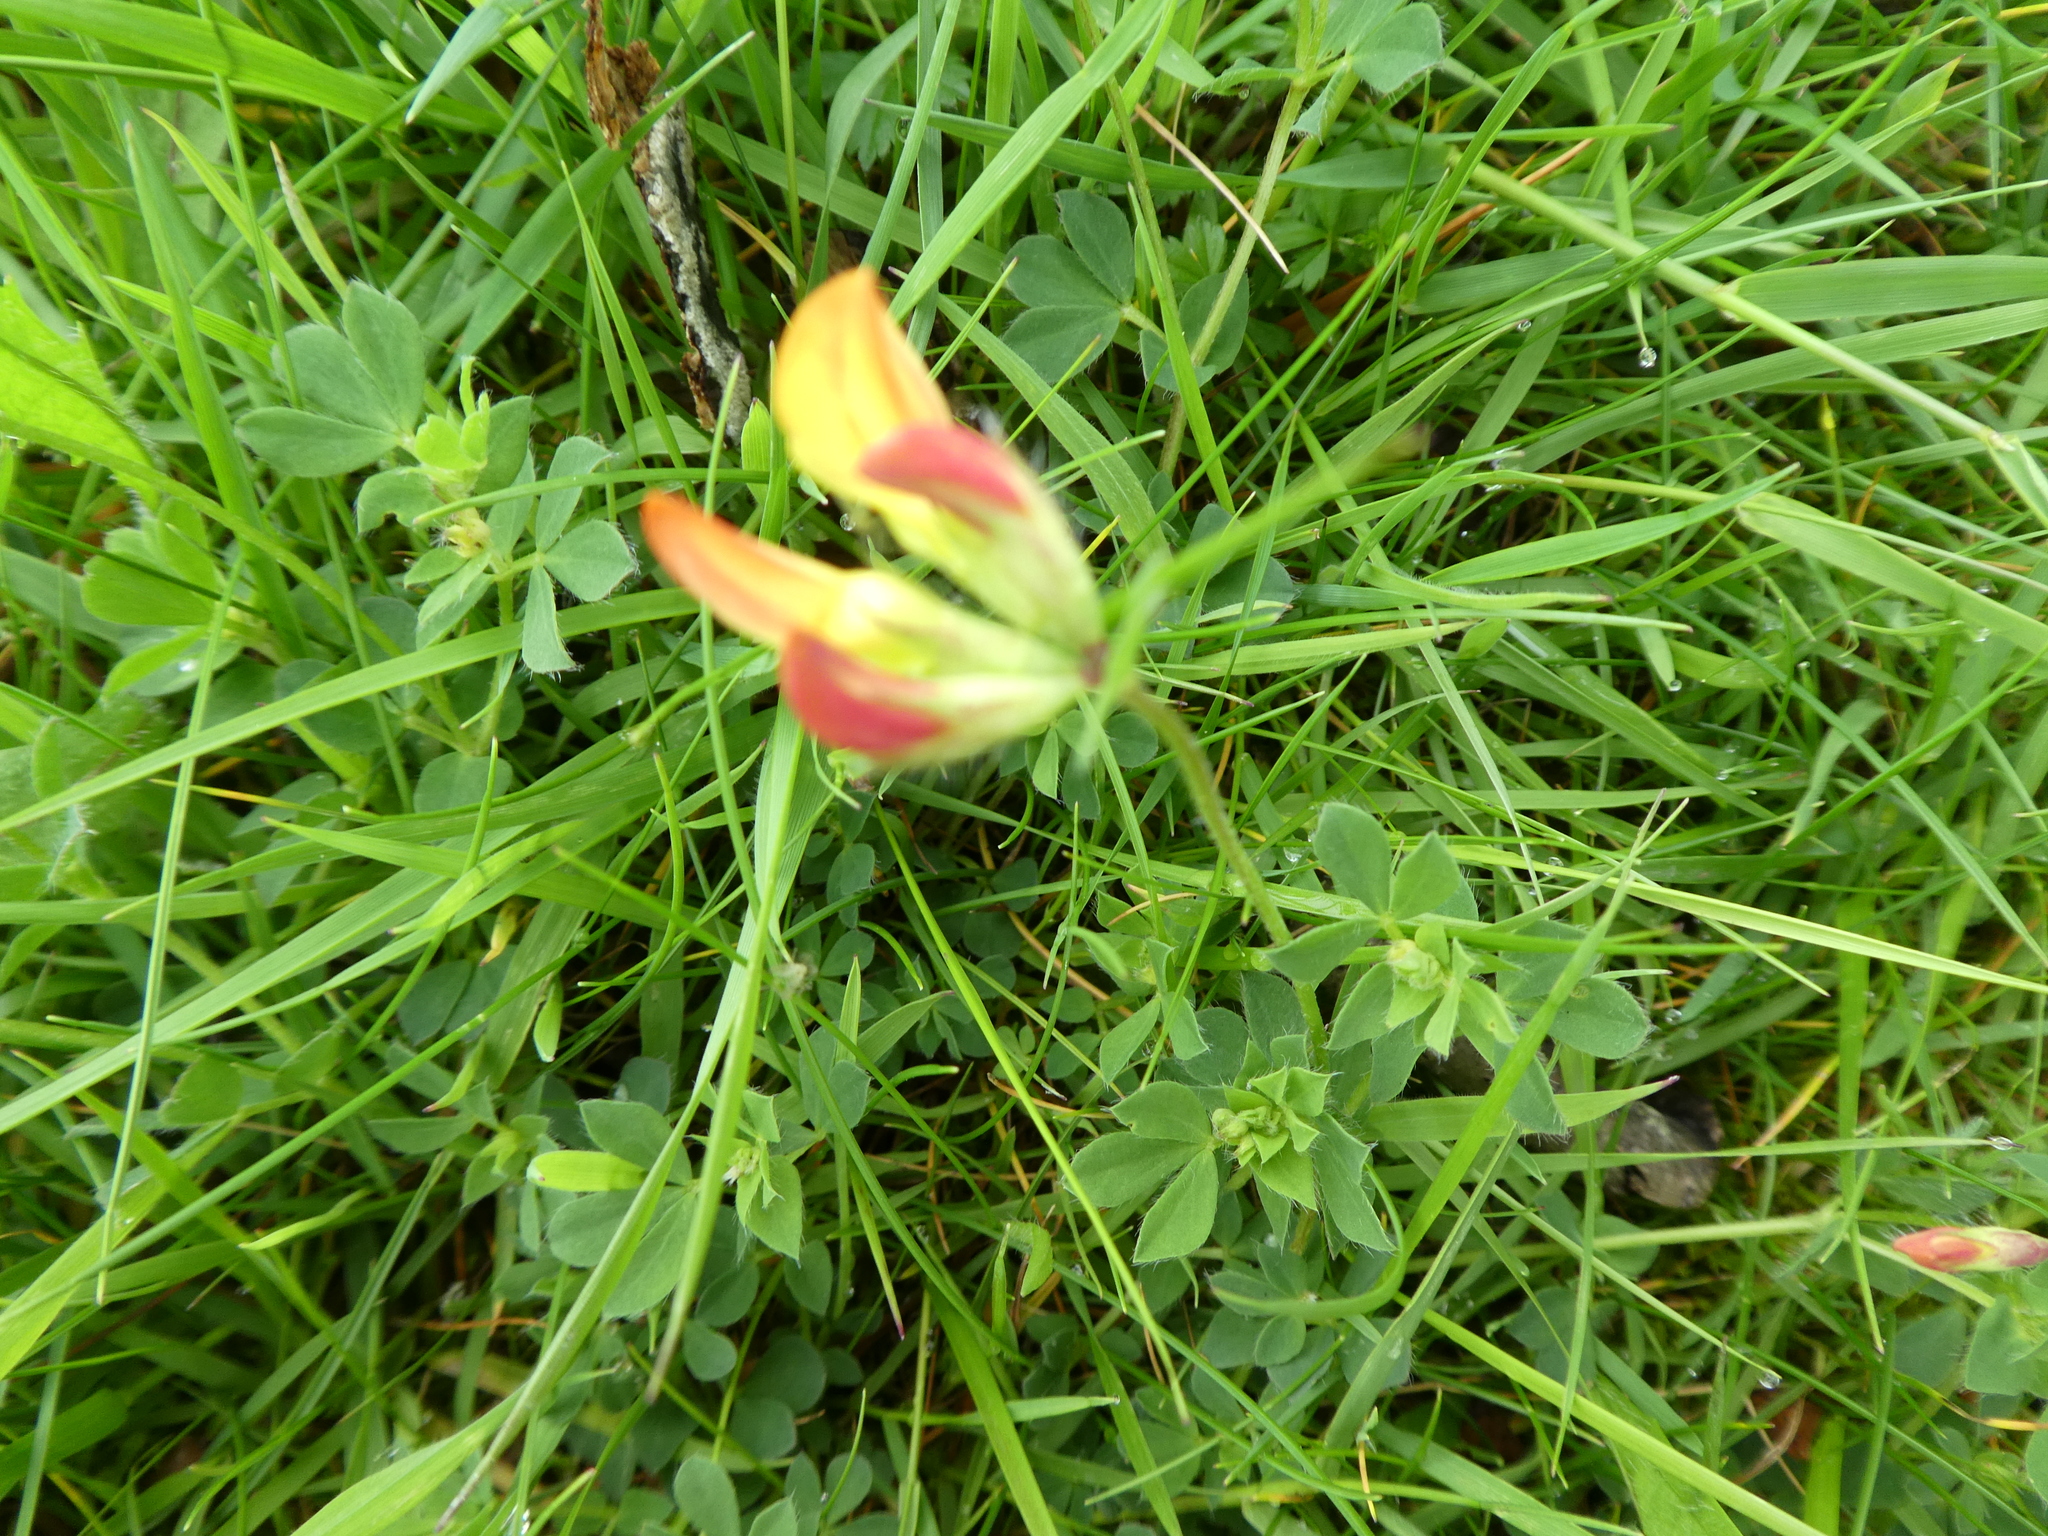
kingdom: Plantae
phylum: Tracheophyta
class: Magnoliopsida
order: Fabales
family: Fabaceae
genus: Lotus
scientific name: Lotus corniculatus
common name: Common bird's-foot-trefoil
